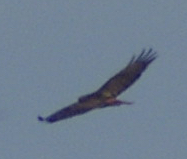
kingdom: Animalia
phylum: Chordata
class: Aves
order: Accipitriformes
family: Accipitridae
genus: Buteo
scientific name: Buteo jamaicensis
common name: Red-tailed hawk
